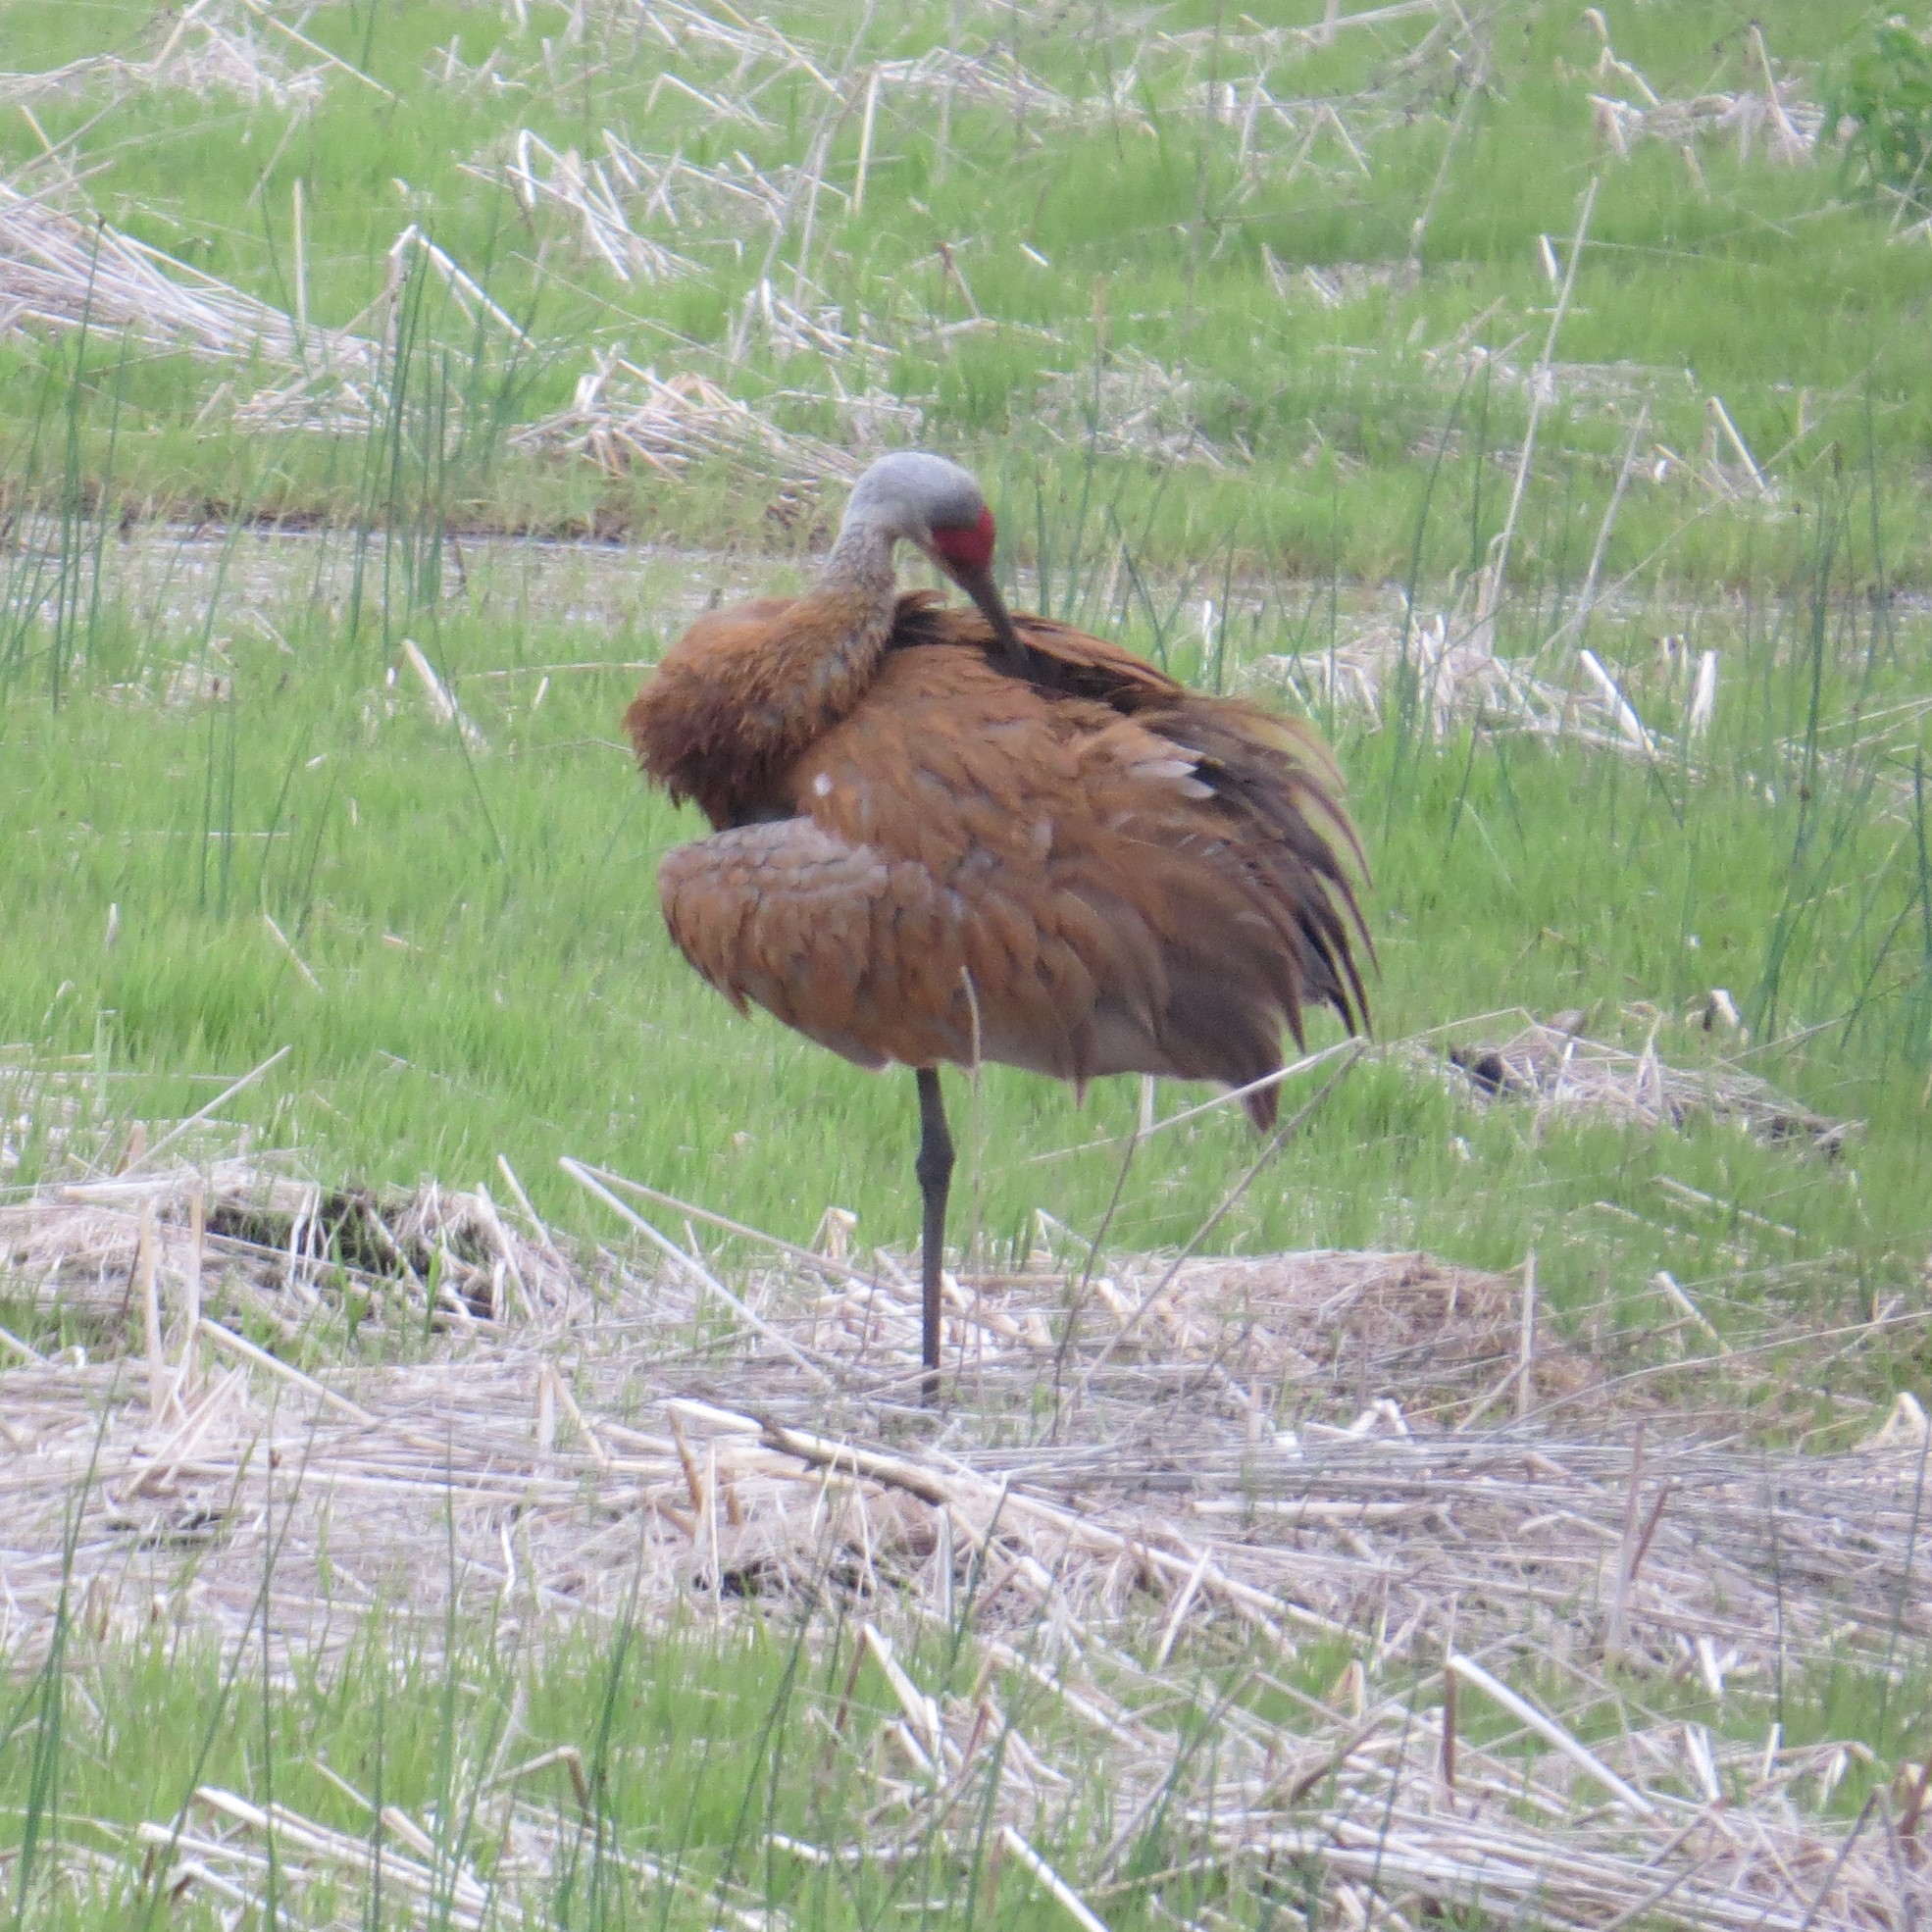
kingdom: Animalia
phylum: Chordata
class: Aves
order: Gruiformes
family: Gruidae
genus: Grus
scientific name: Grus canadensis
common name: Sandhill crane
